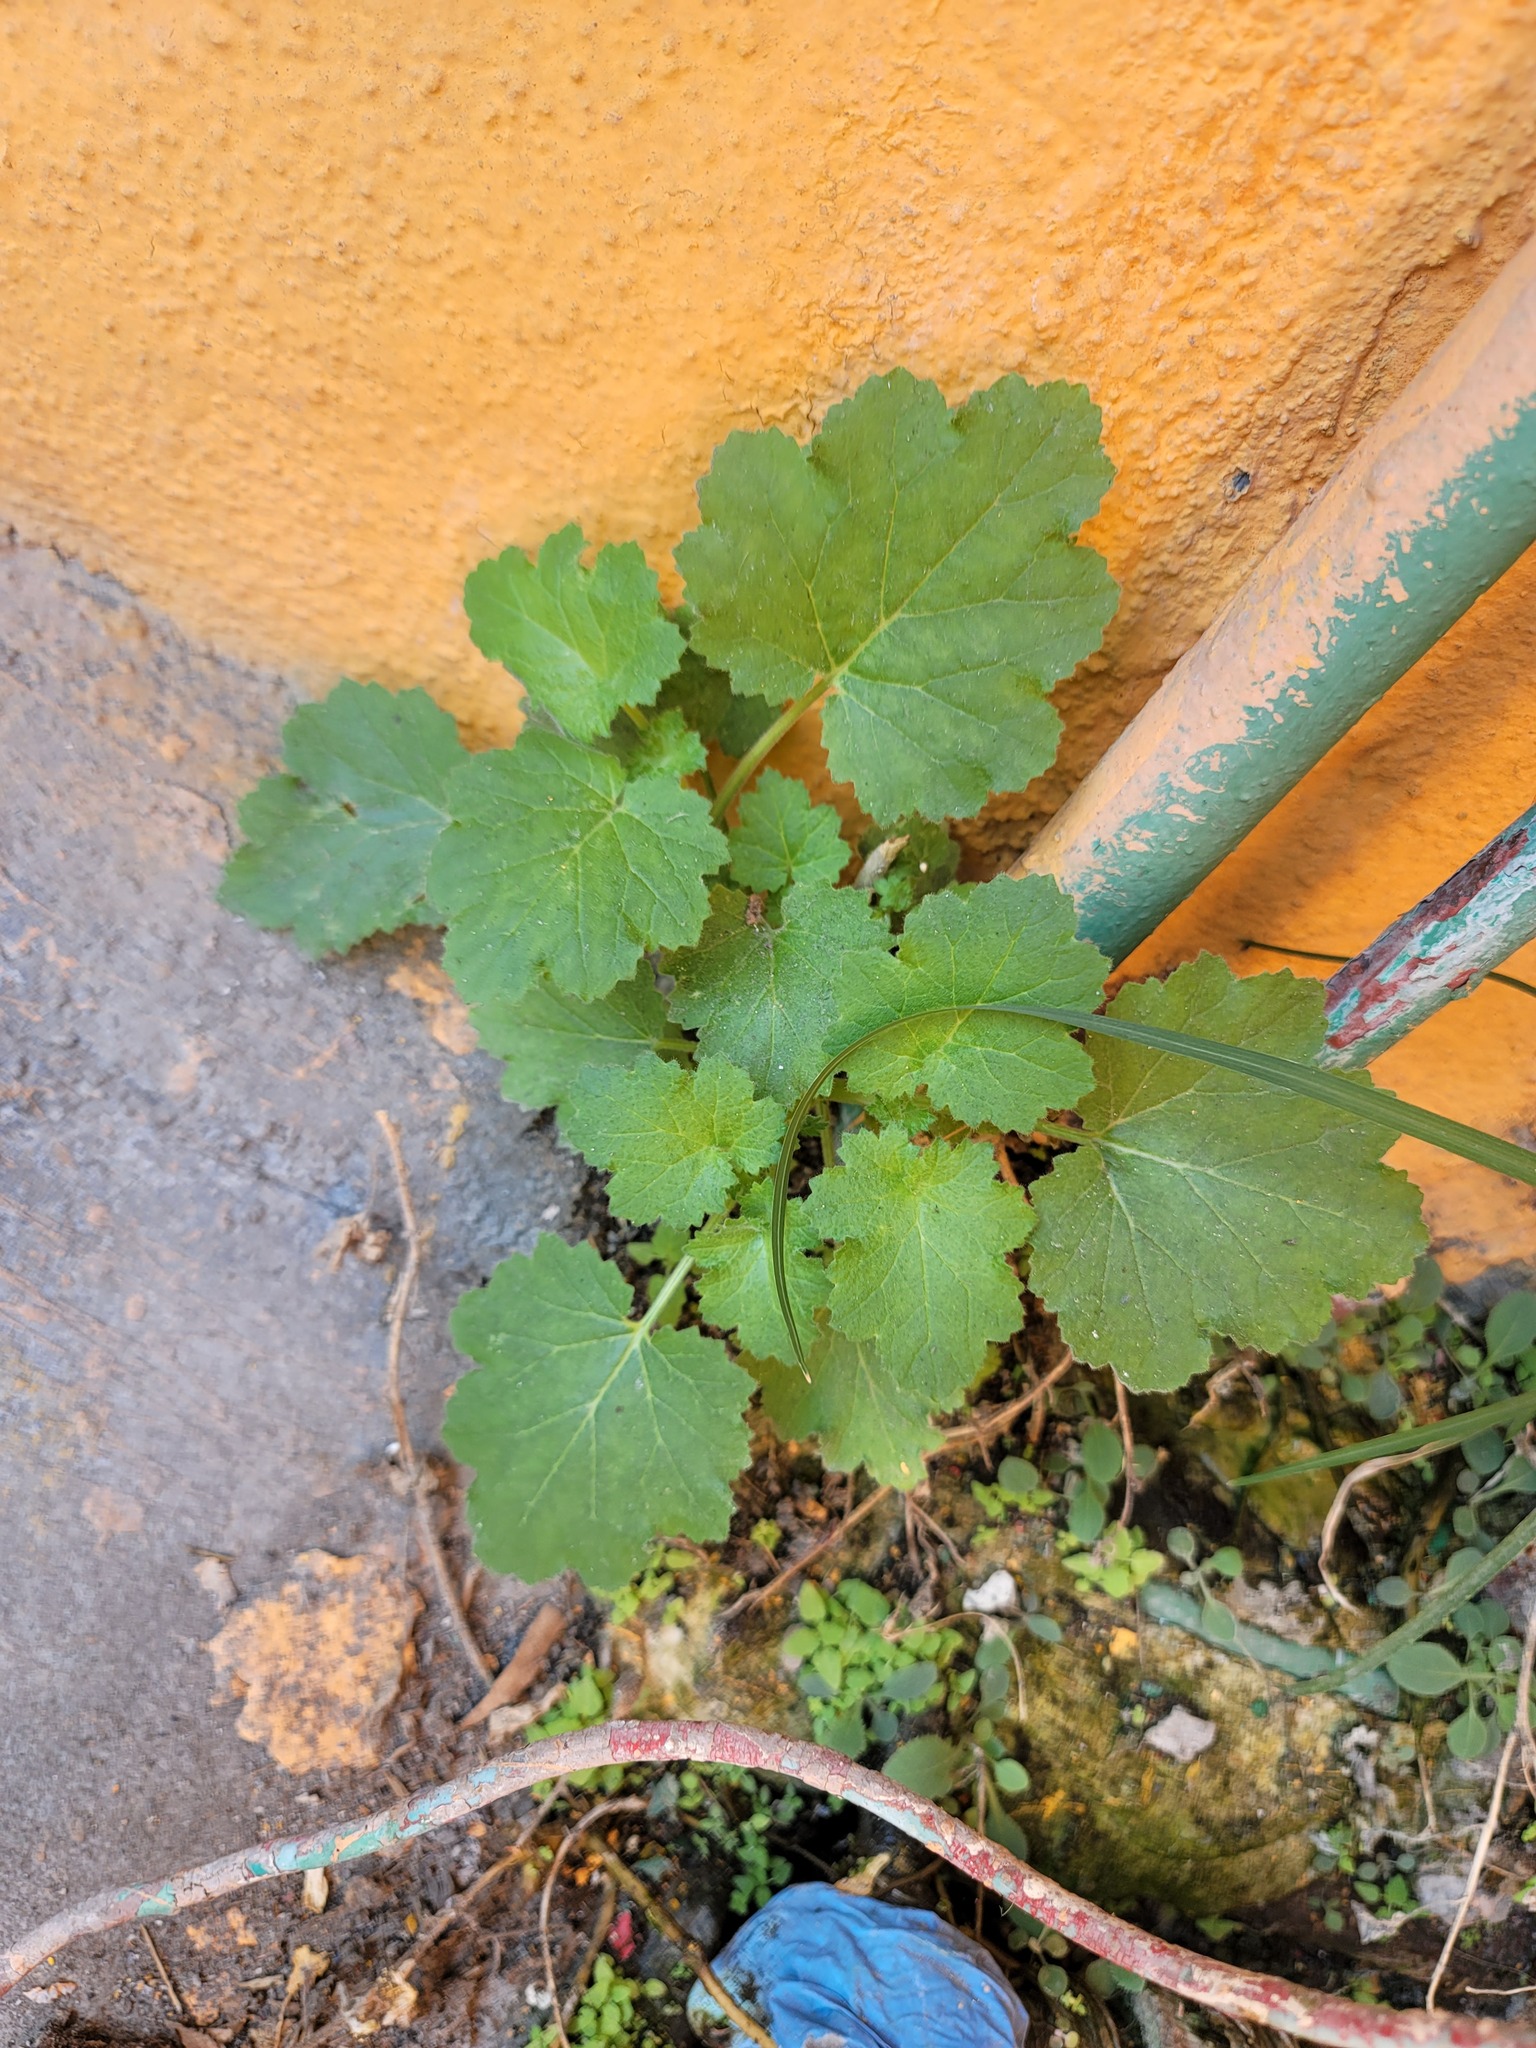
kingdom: Plantae
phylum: Tracheophyta
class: Magnoliopsida
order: Cornales
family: Loasaceae
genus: Eucnide
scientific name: Eucnide lobata
